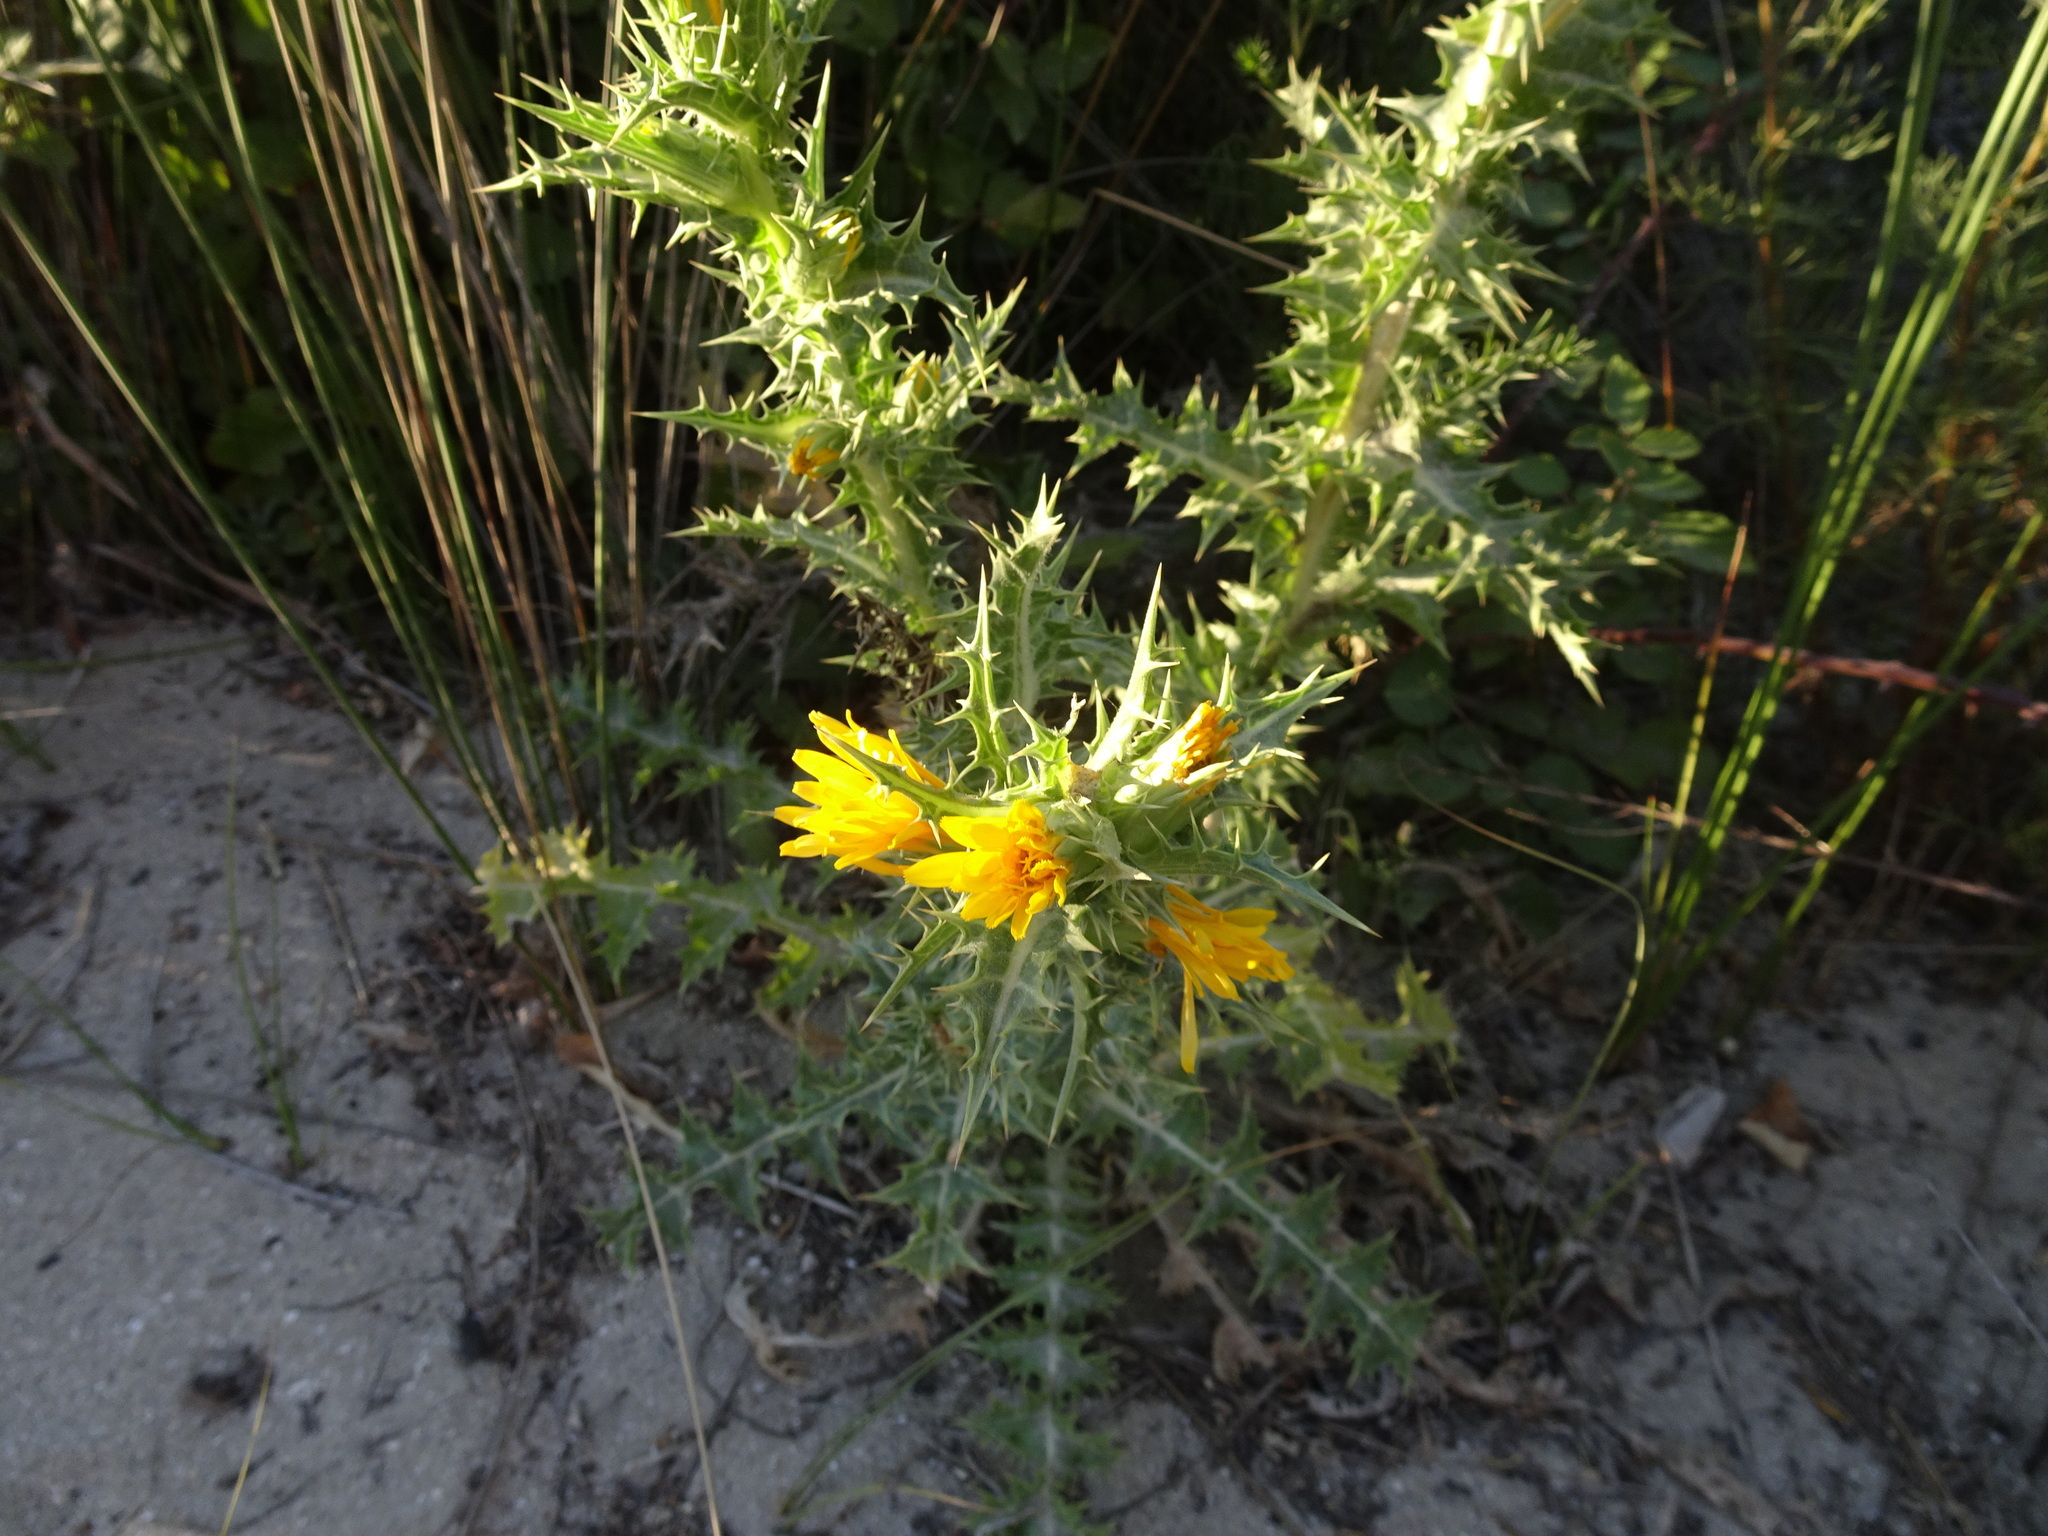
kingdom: Plantae
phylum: Tracheophyta
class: Magnoliopsida
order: Asterales
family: Asteraceae
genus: Scolymus
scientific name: Scolymus hispanicus
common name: Golden thistle
